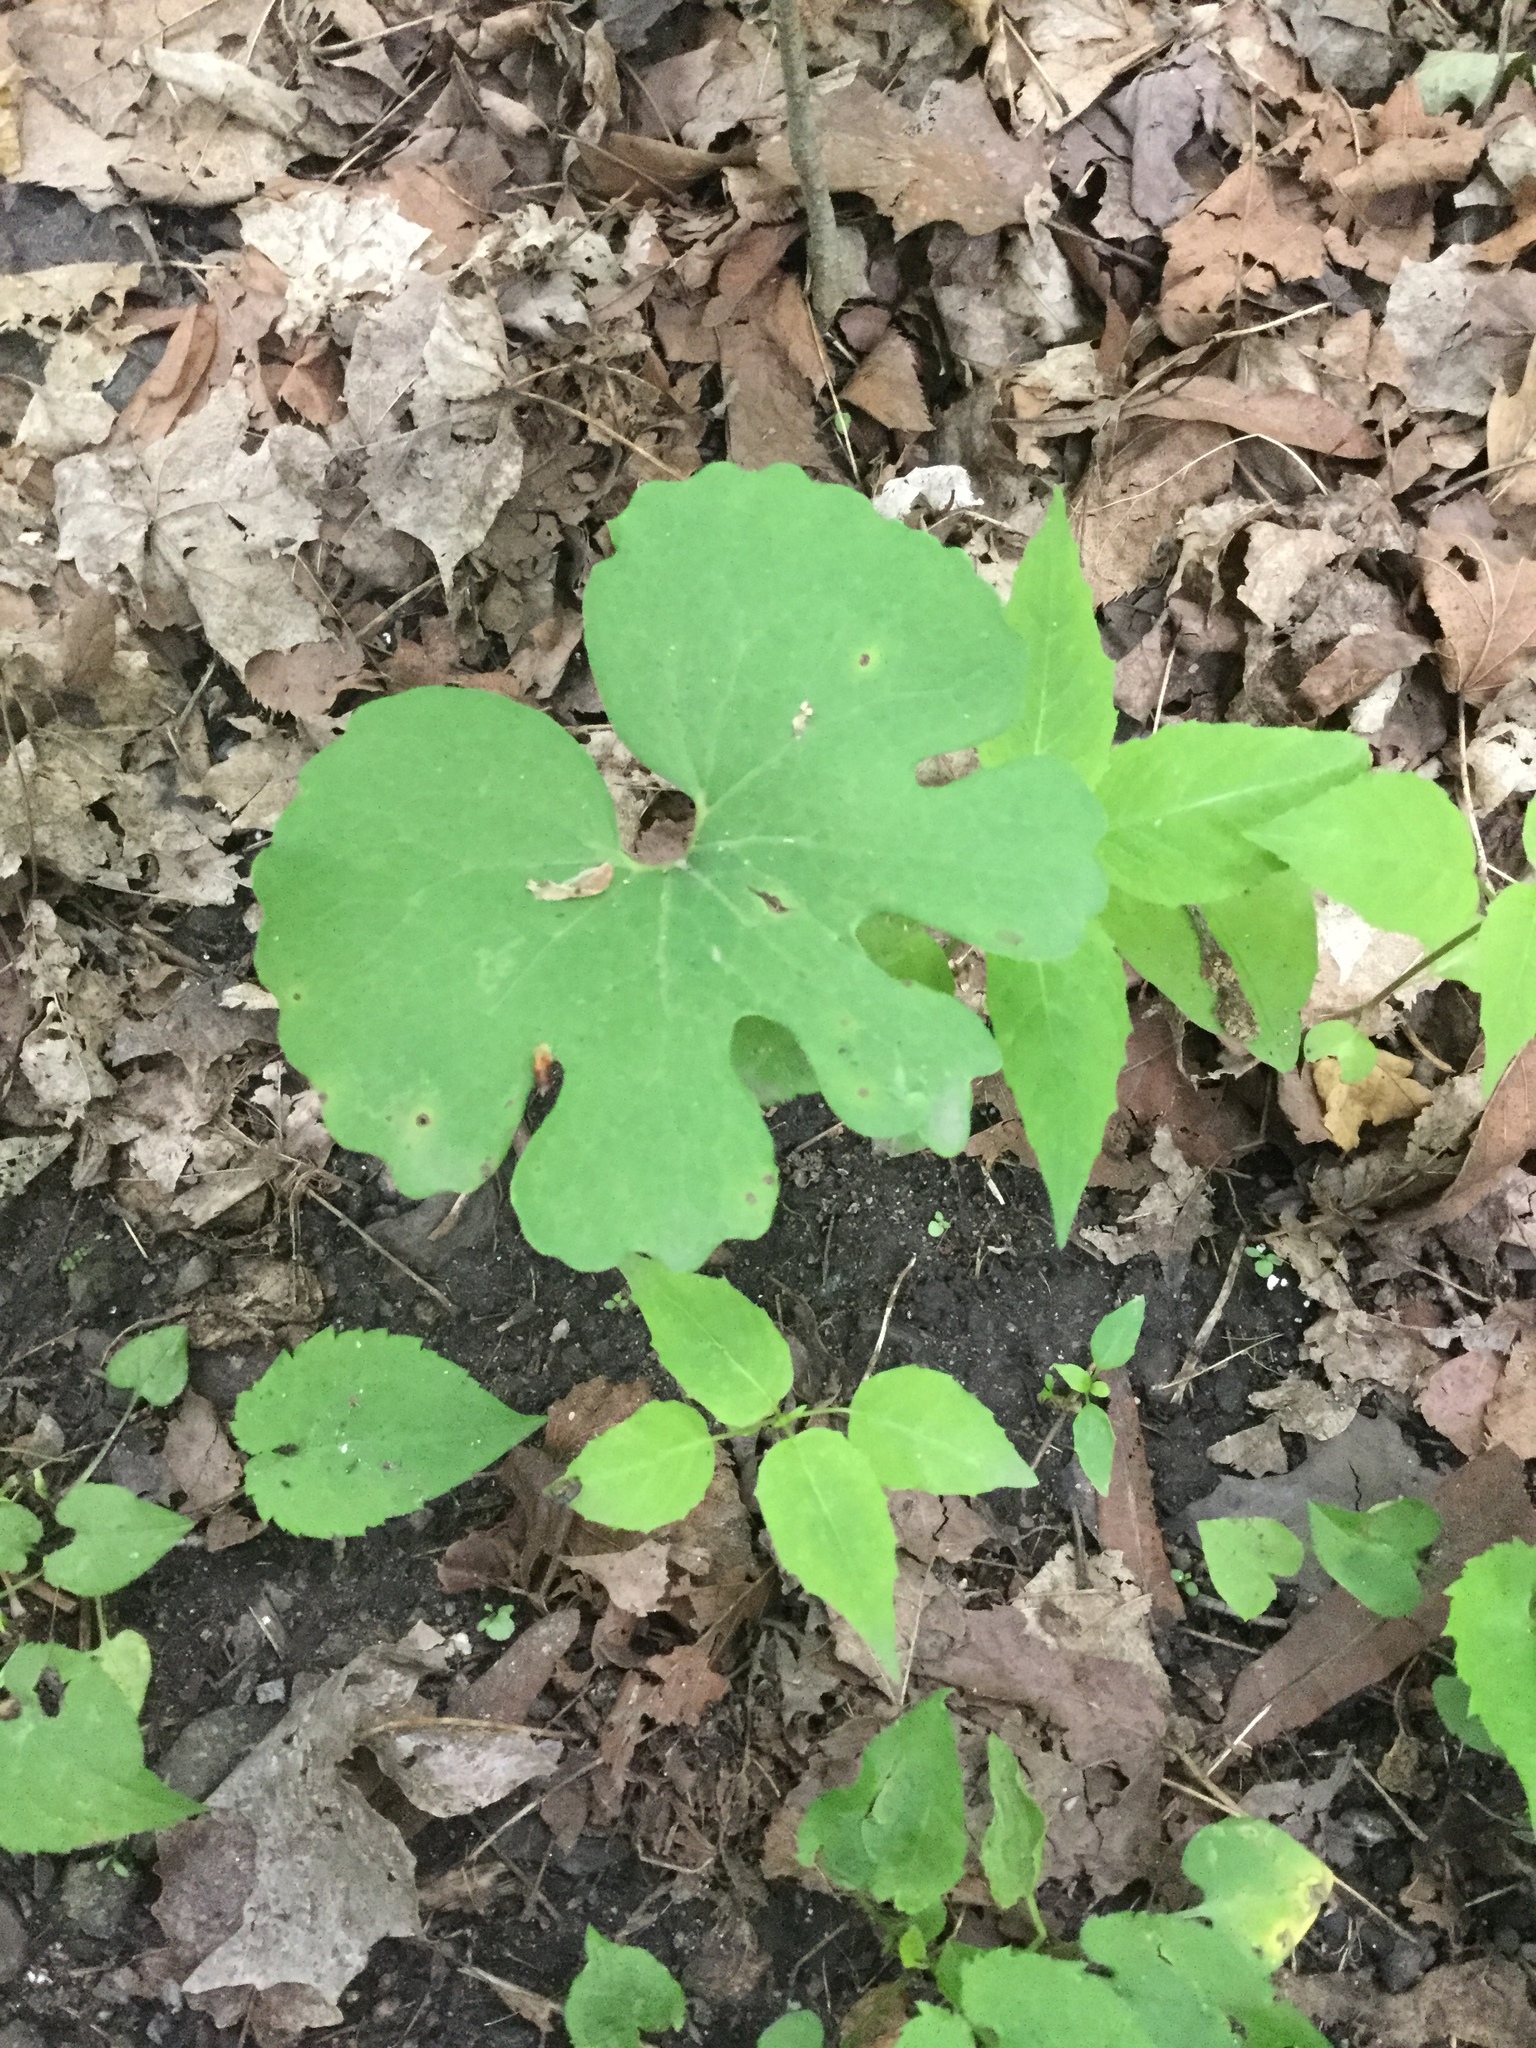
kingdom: Plantae
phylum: Tracheophyta
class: Magnoliopsida
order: Ranunculales
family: Papaveraceae
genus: Sanguinaria
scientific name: Sanguinaria canadensis
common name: Bloodroot
